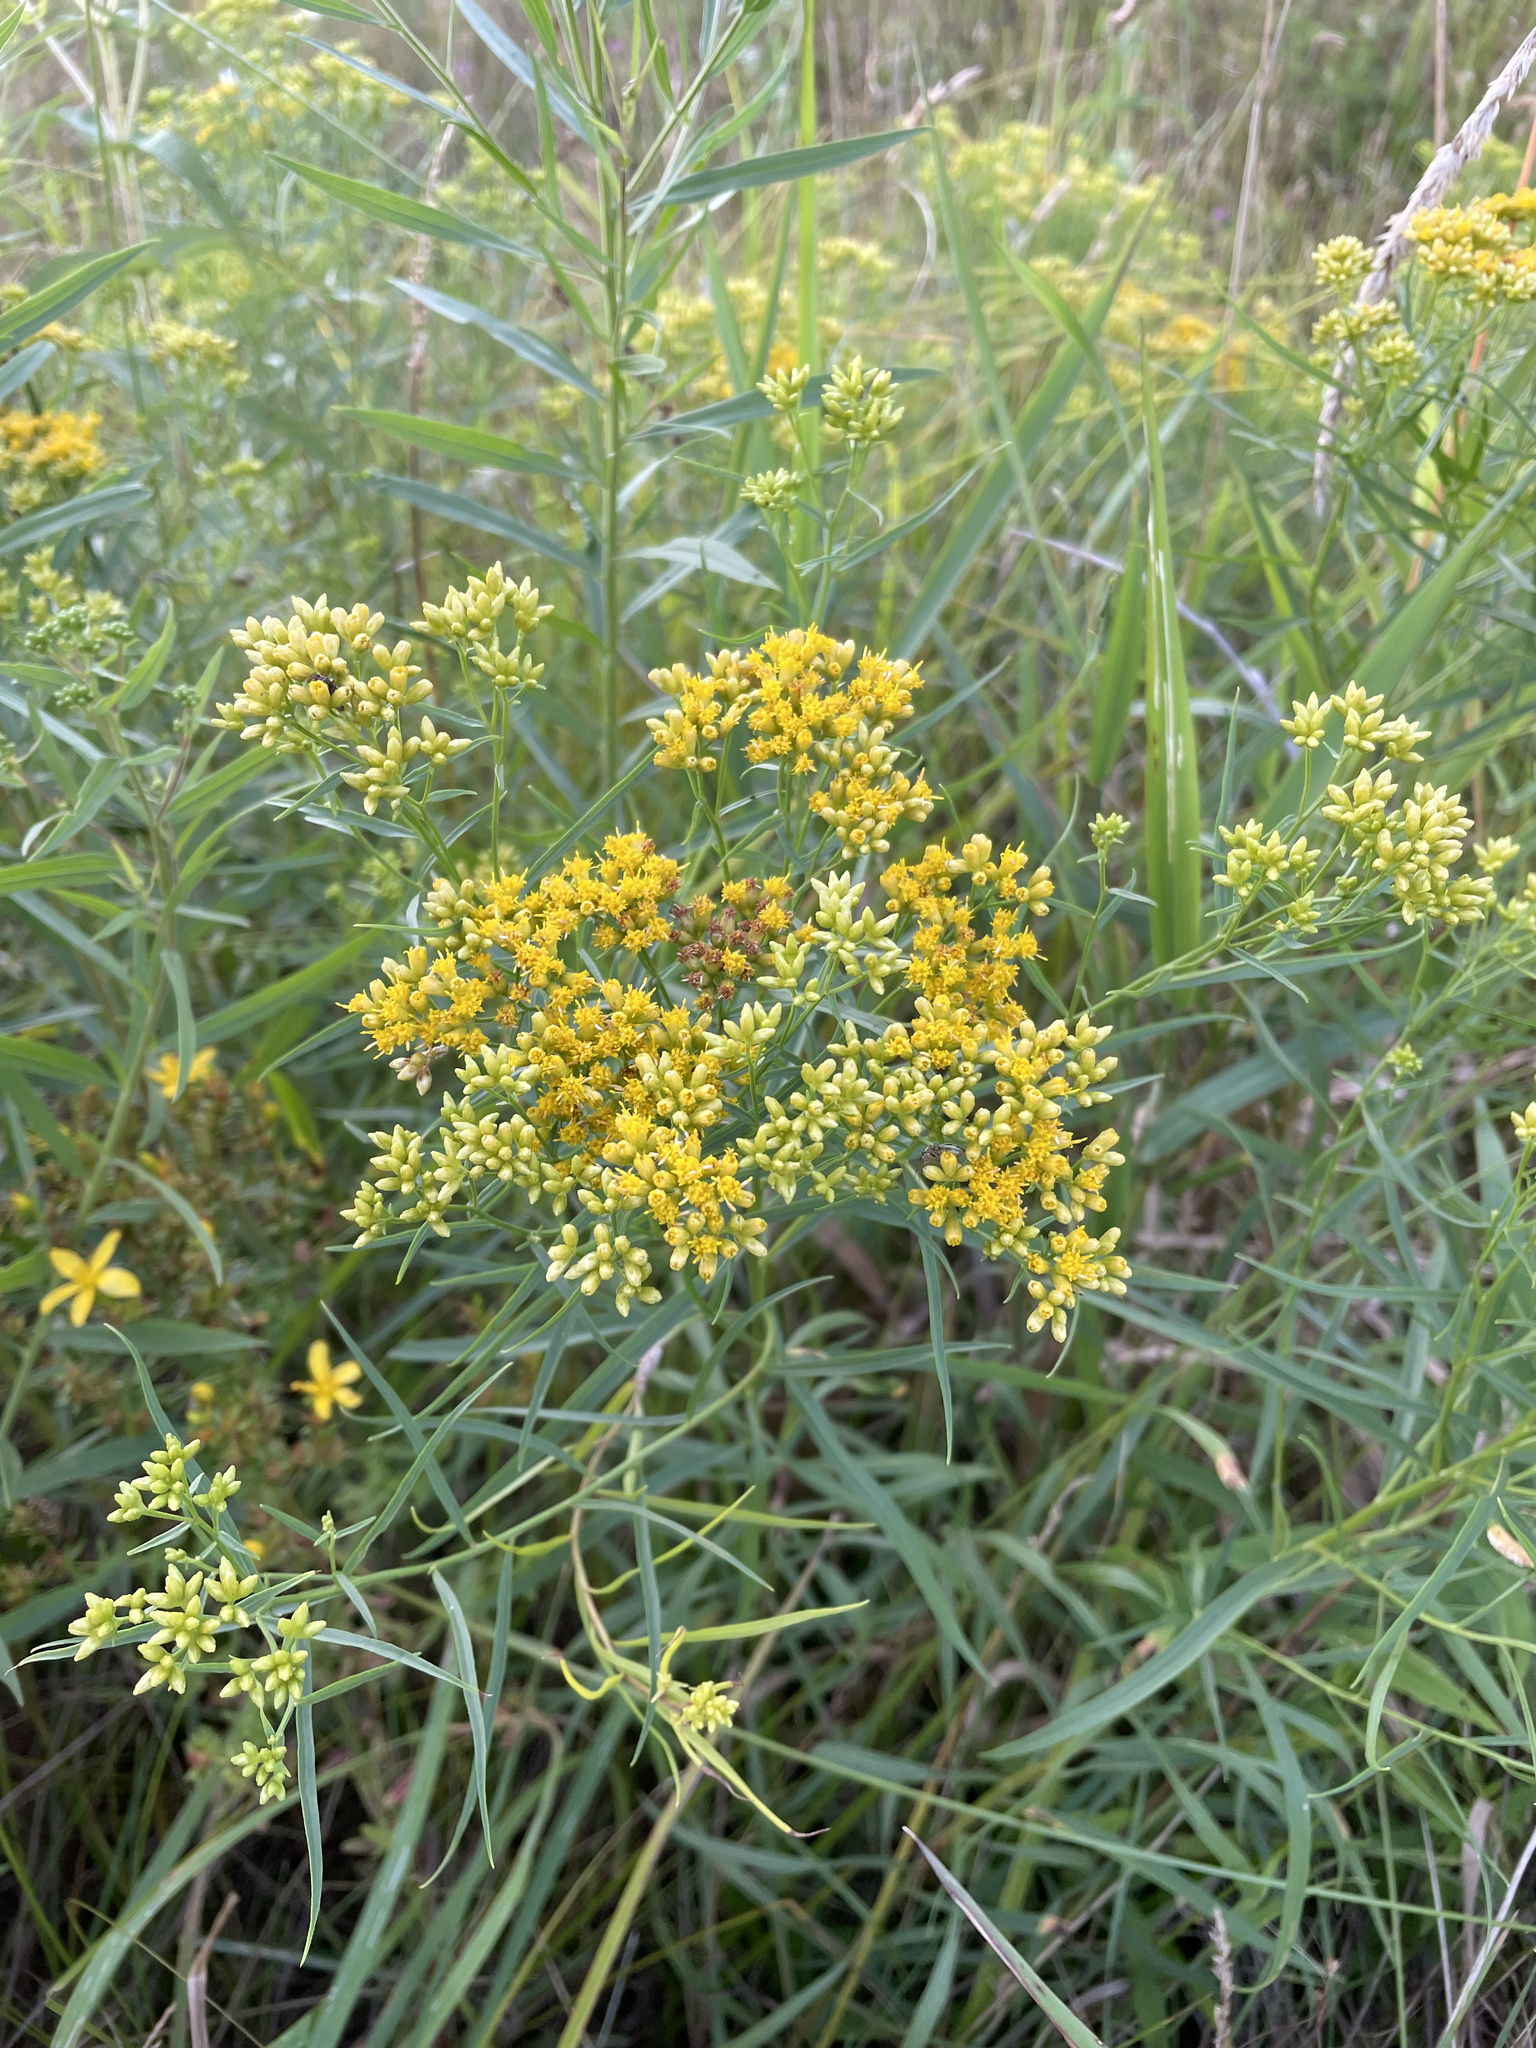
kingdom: Plantae
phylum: Tracheophyta
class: Magnoliopsida
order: Asterales
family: Asteraceae
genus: Euthamia
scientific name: Euthamia graminifolia
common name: Common goldentop
